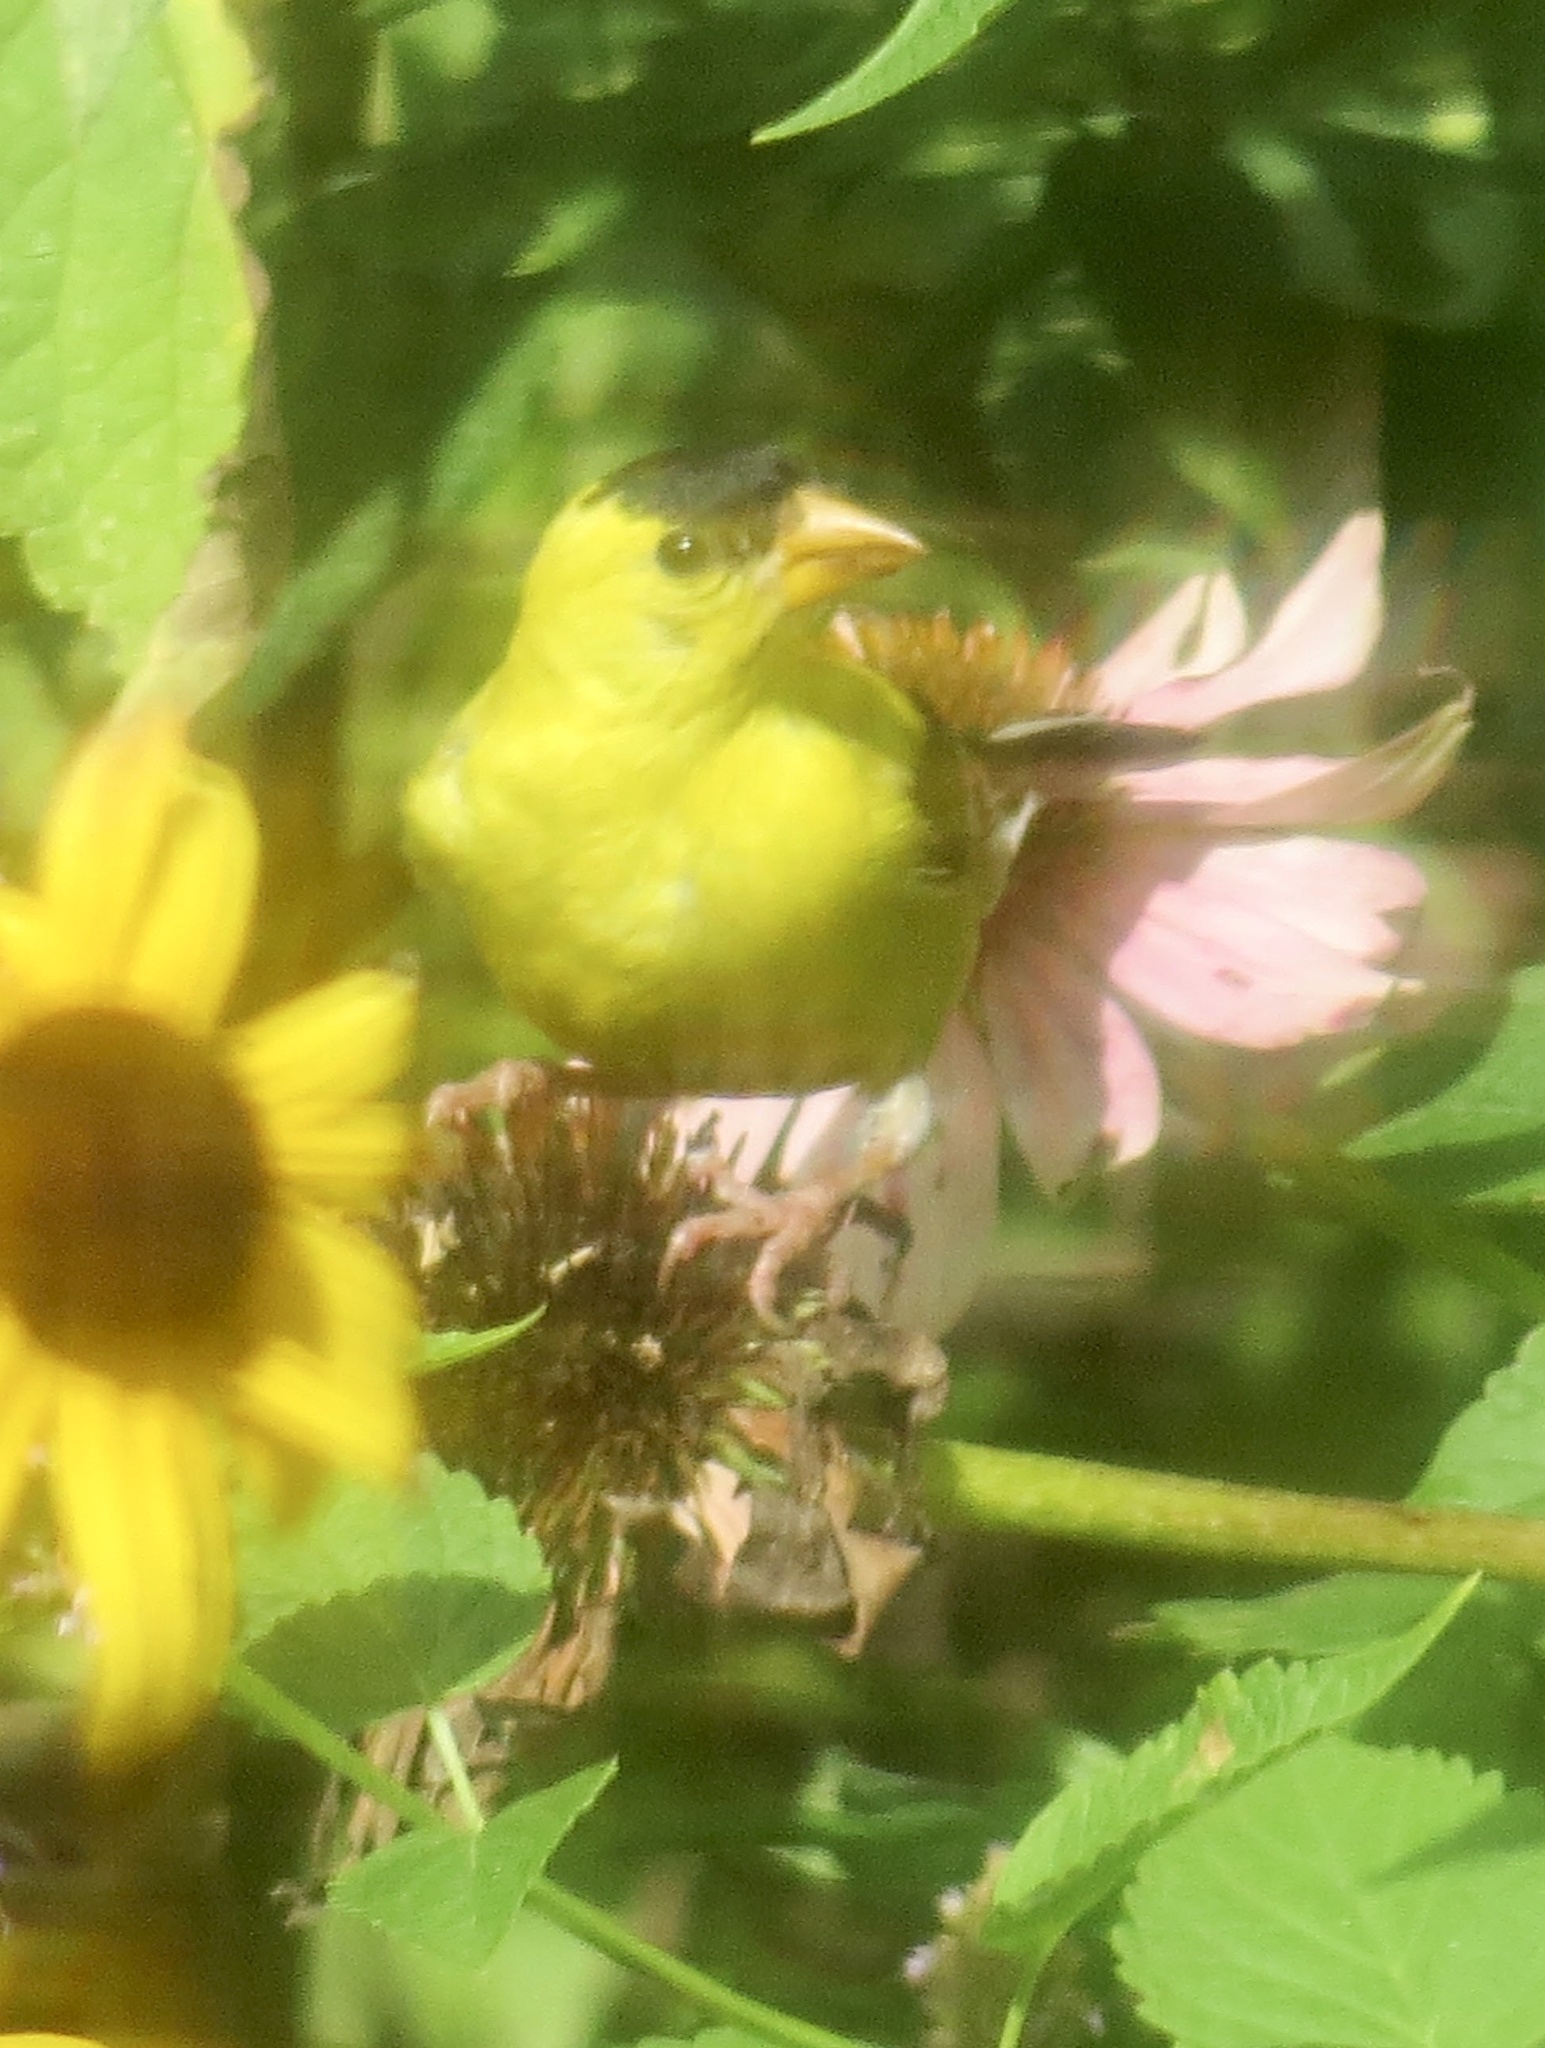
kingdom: Animalia
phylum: Chordata
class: Aves
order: Passeriformes
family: Fringillidae
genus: Spinus
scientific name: Spinus tristis
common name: American goldfinch
